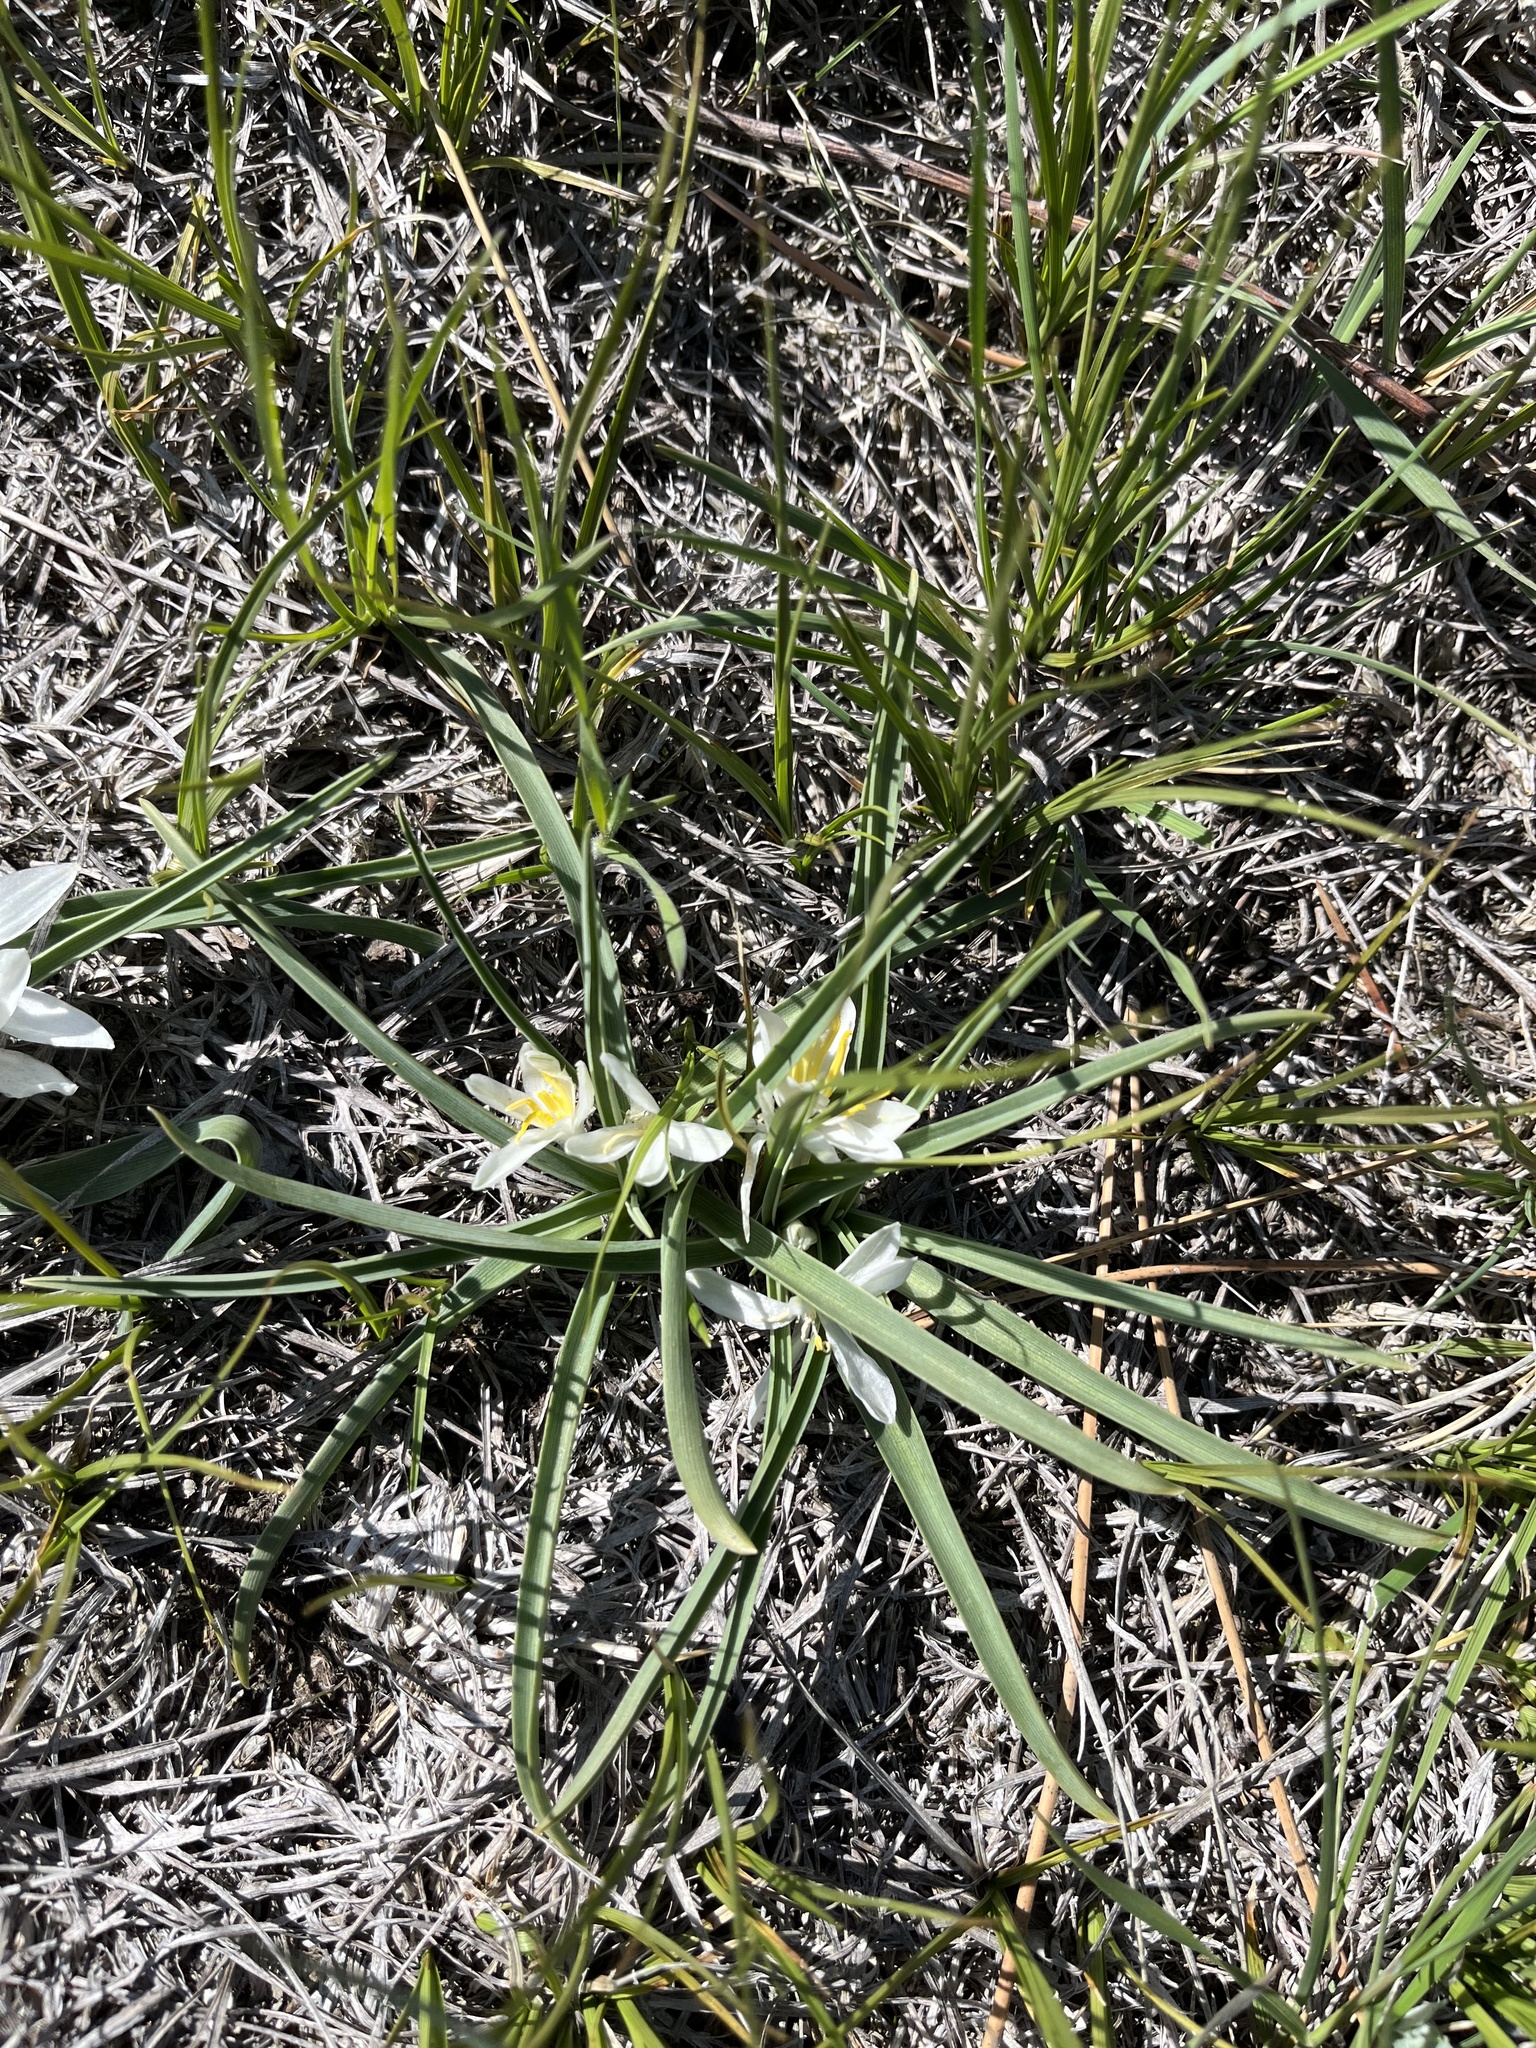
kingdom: Plantae
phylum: Tracheophyta
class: Liliopsida
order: Asparagales
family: Asparagaceae
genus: Leucocrinum
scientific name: Leucocrinum montanum
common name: Mountain-lily
